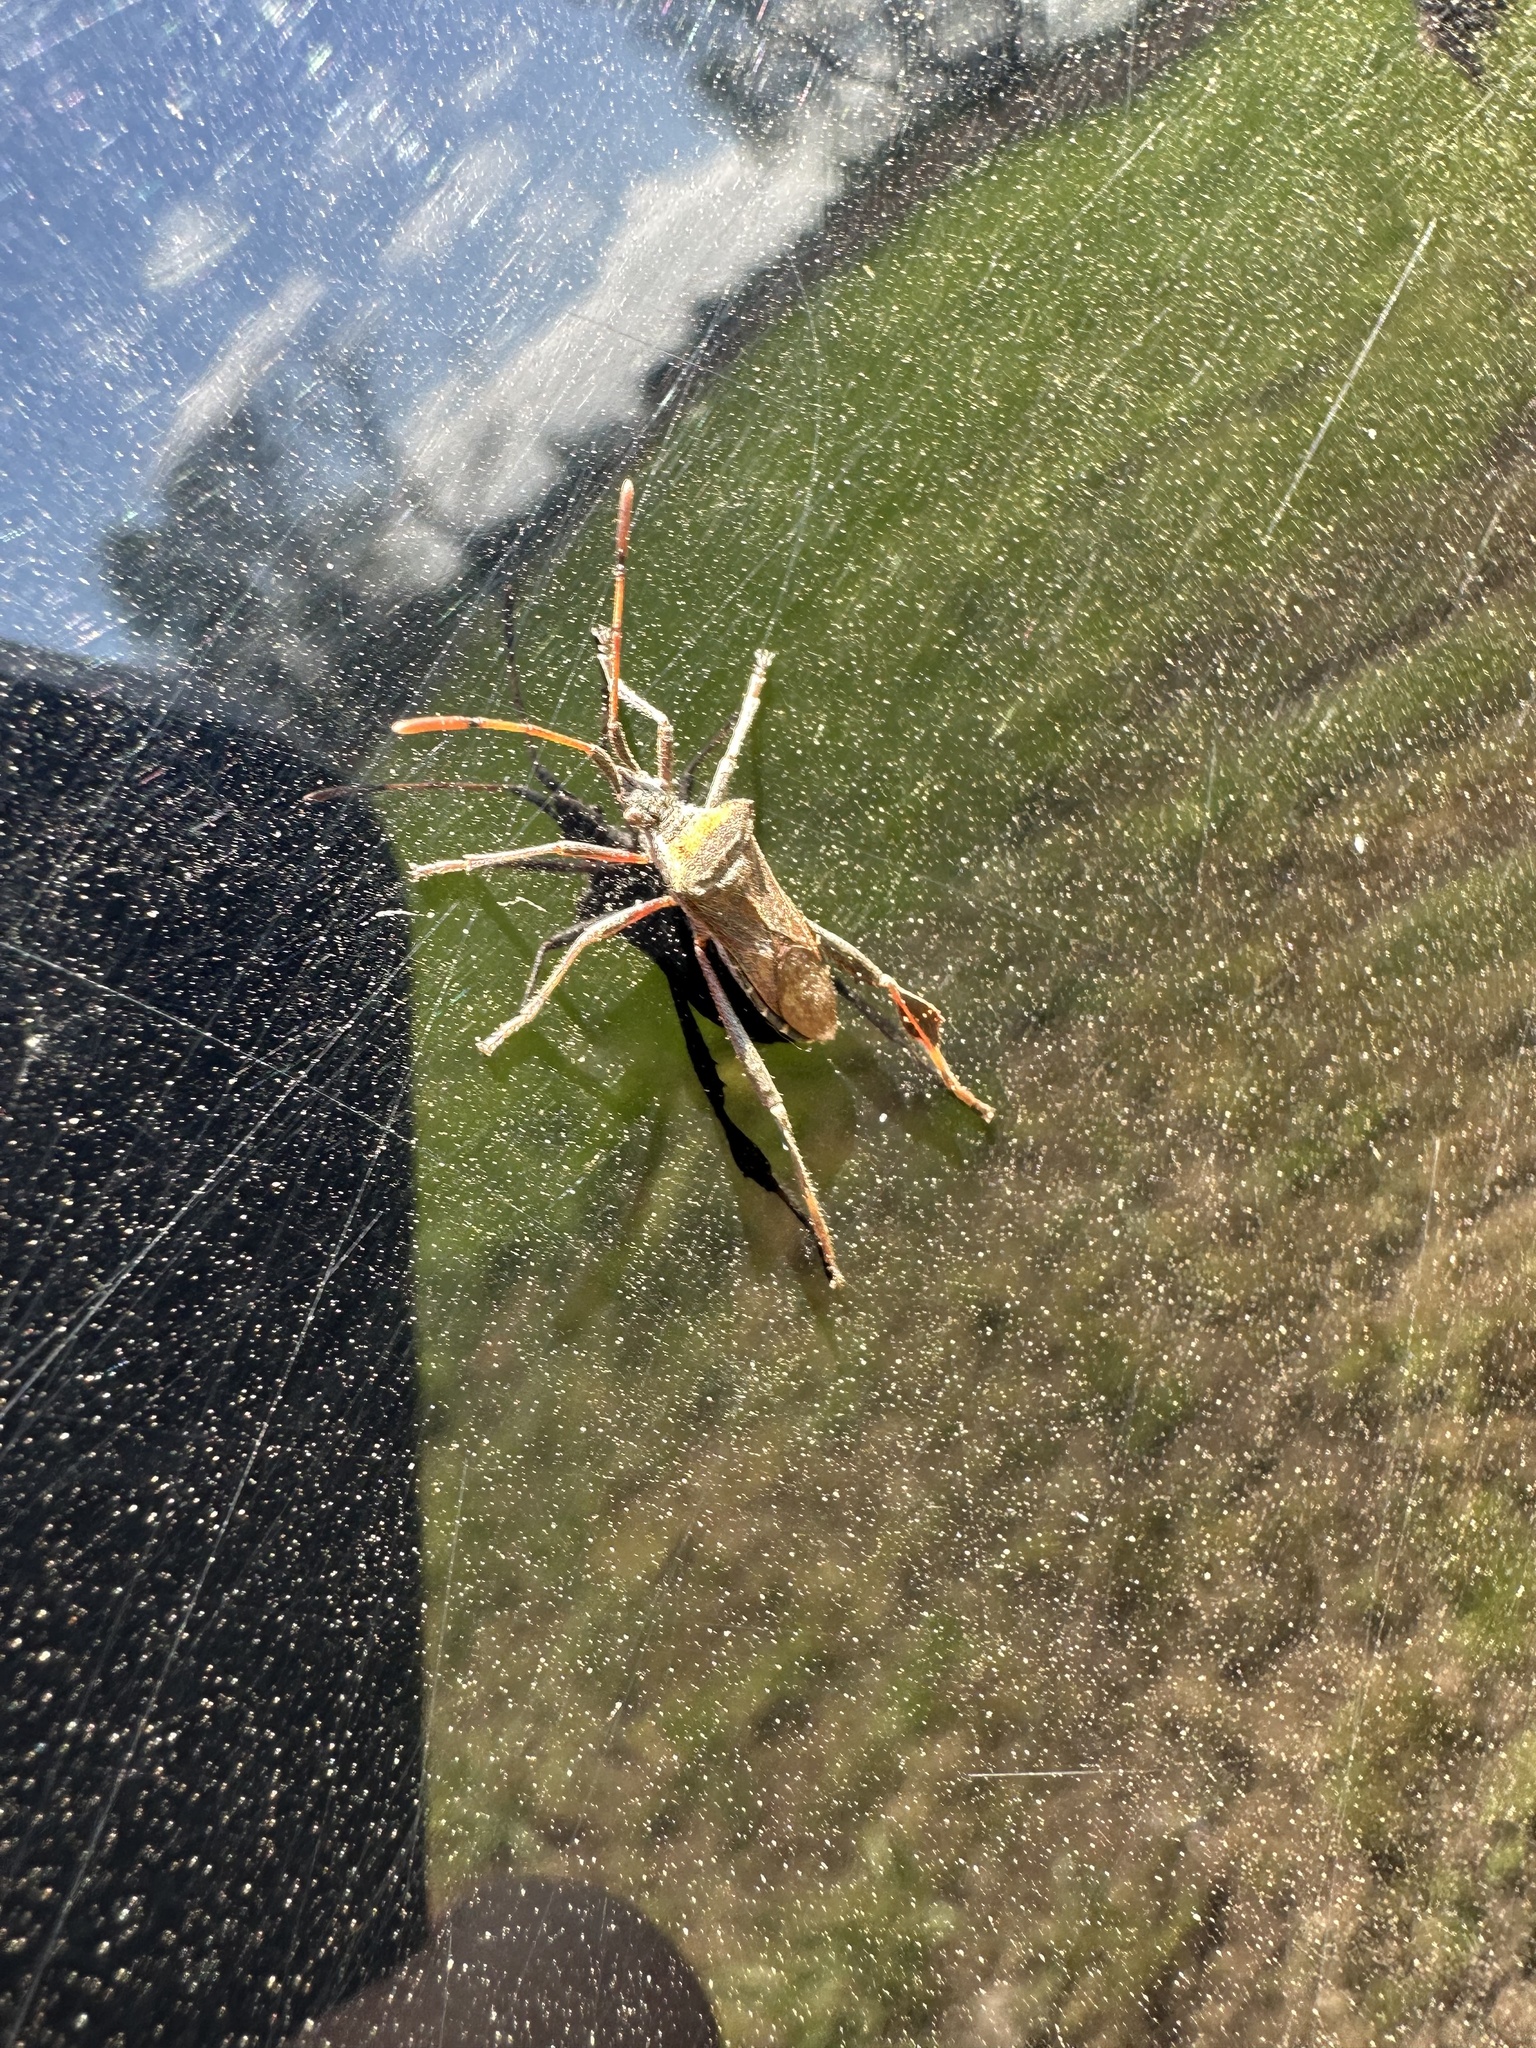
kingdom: Animalia
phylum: Arthropoda
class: Insecta
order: Hemiptera
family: Coreidae
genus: Leptoglossus
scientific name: Leptoglossus chilensis
